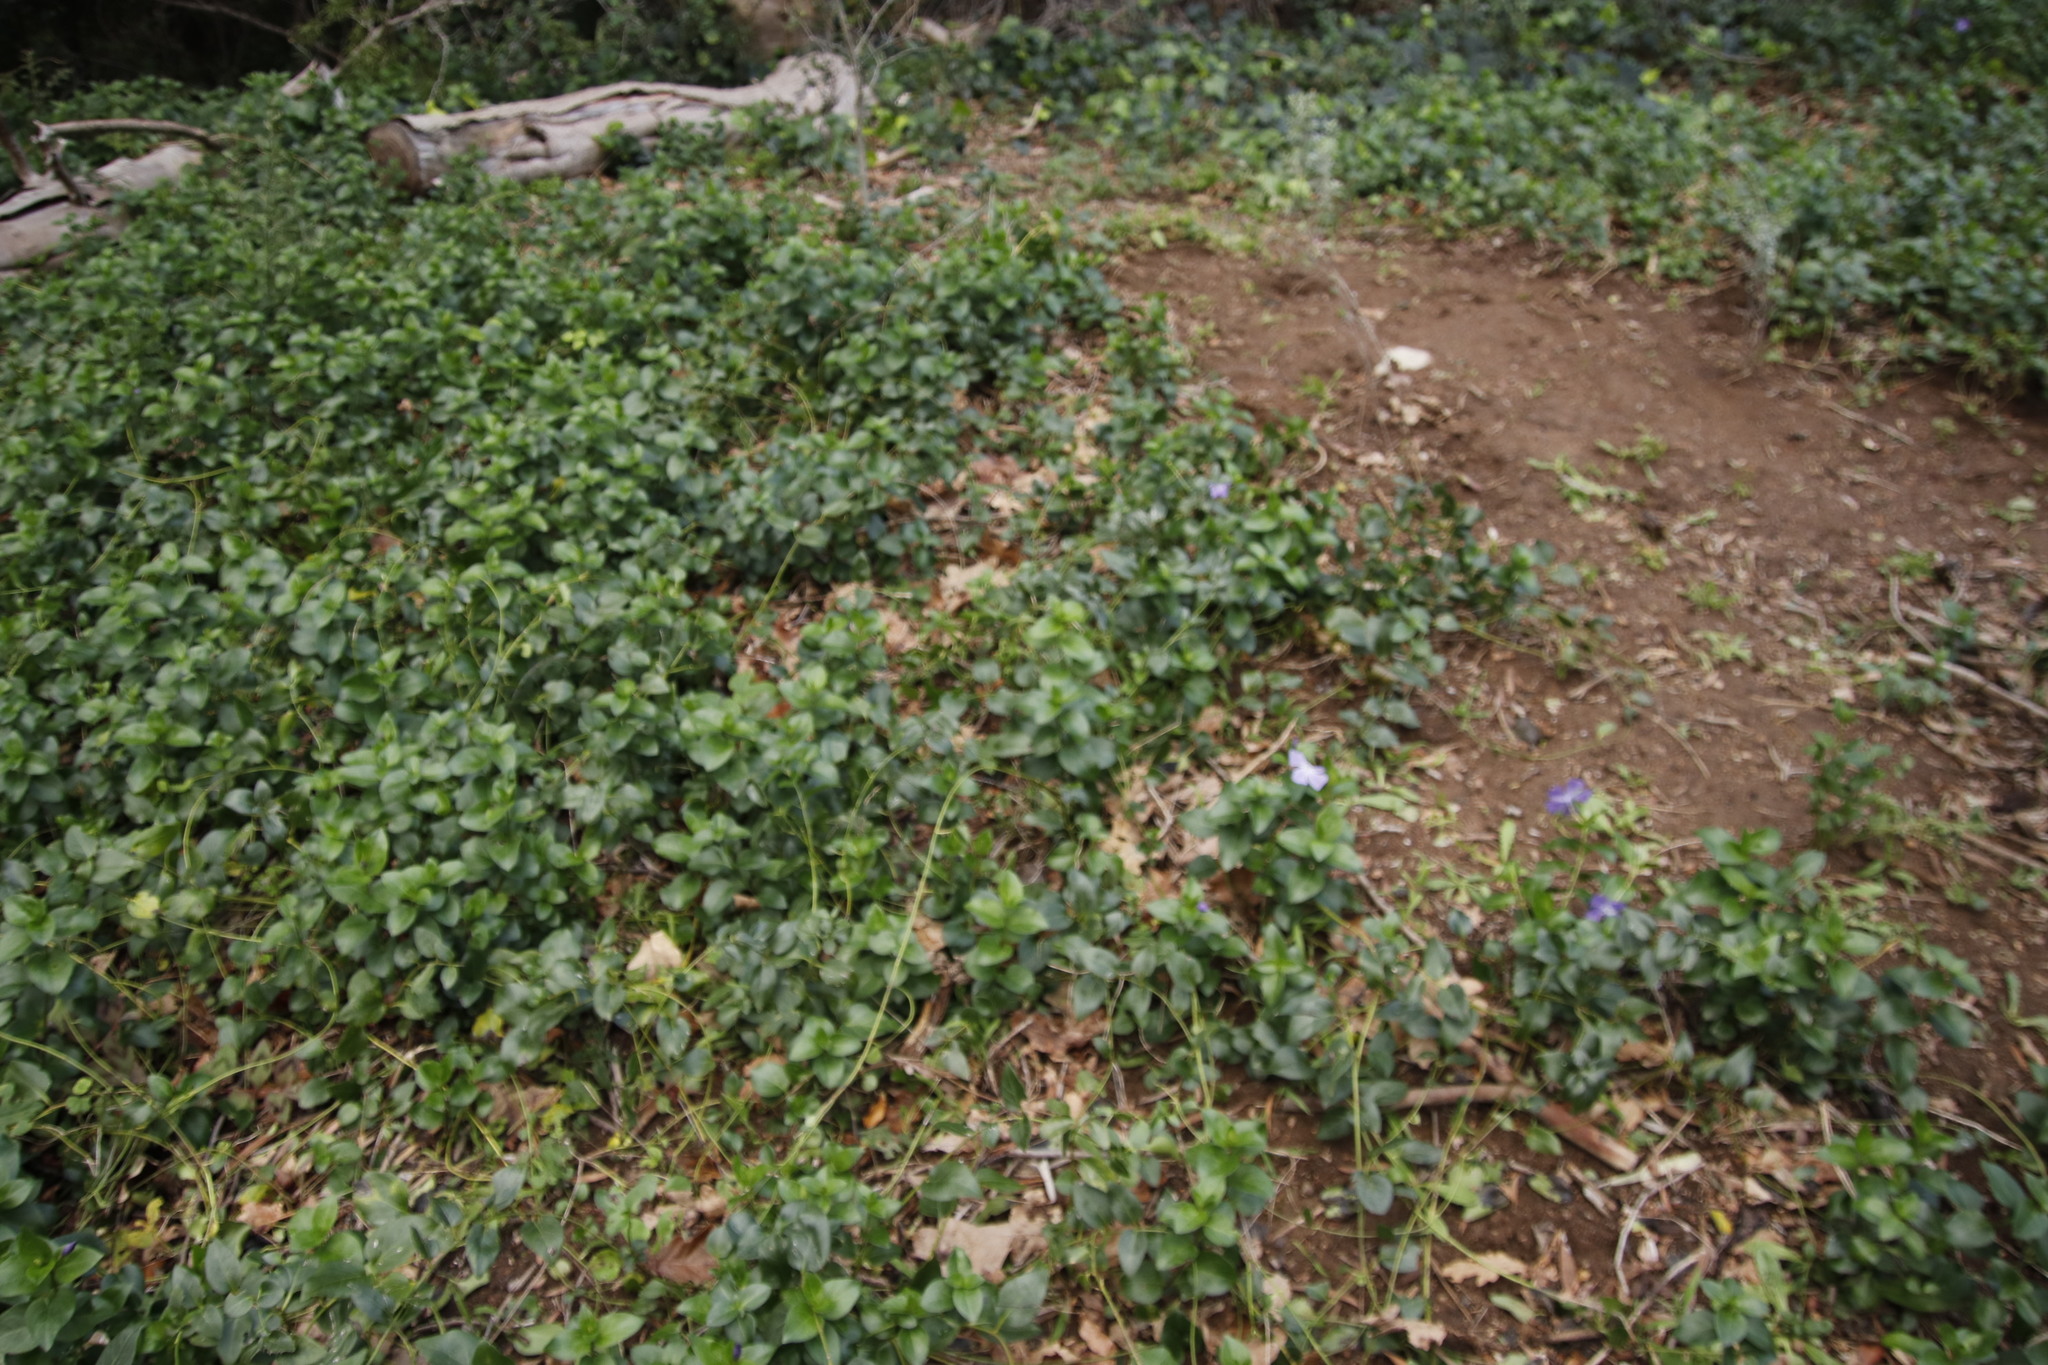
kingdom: Plantae
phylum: Tracheophyta
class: Magnoliopsida
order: Gentianales
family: Apocynaceae
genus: Vinca
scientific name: Vinca major
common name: Greater periwinkle
